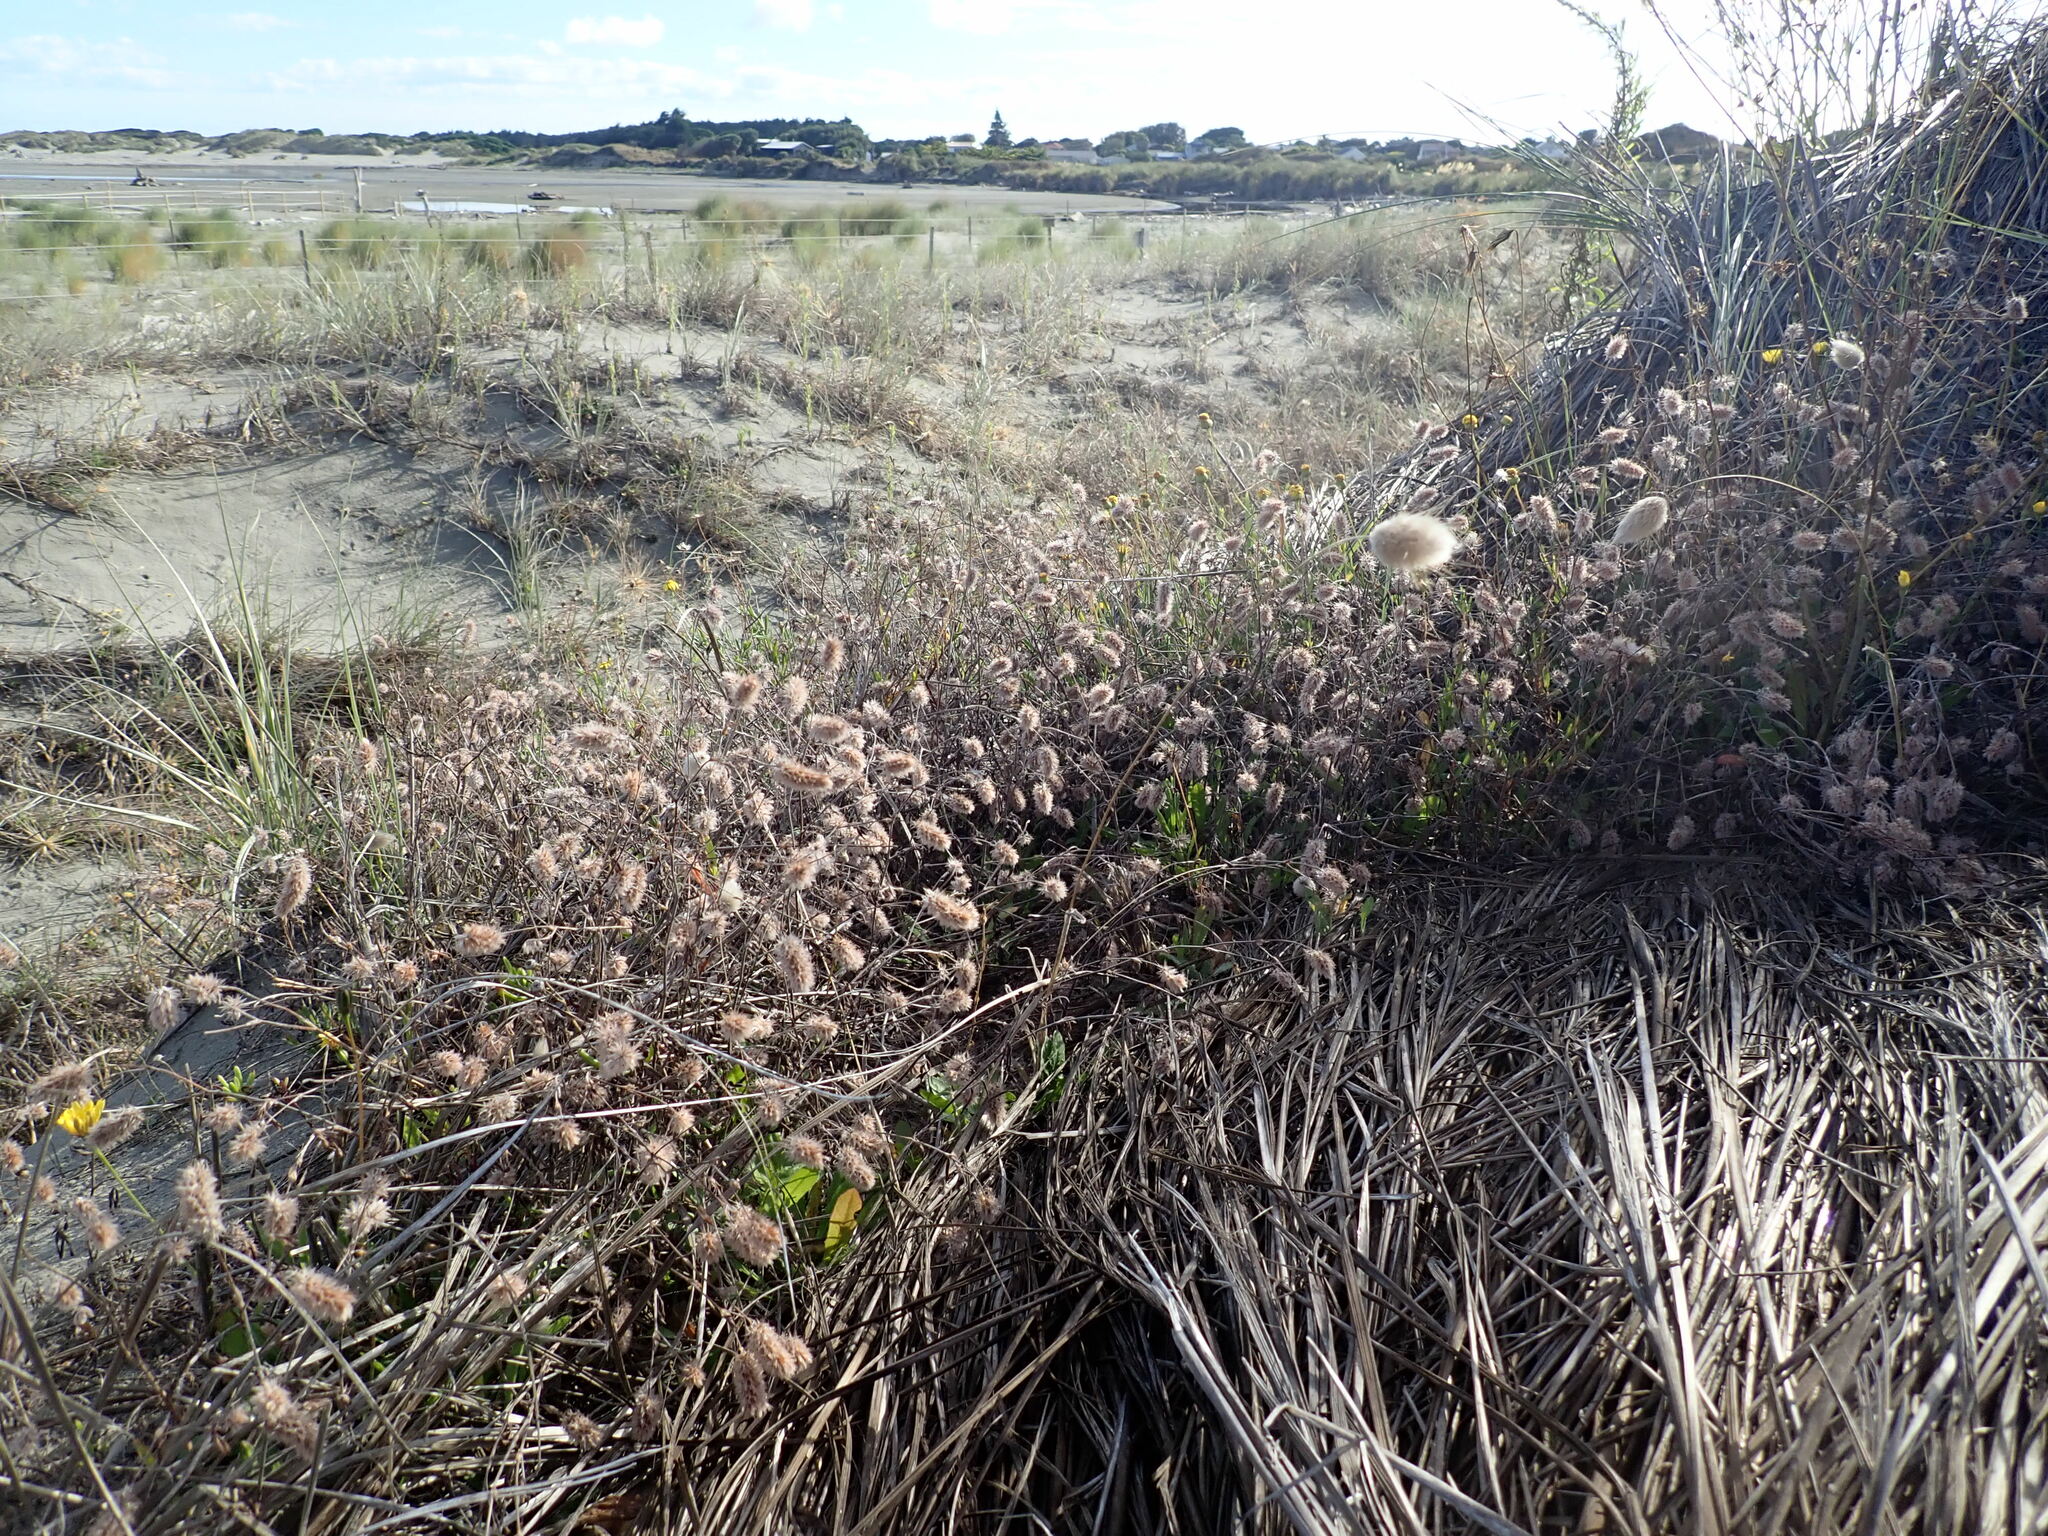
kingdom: Plantae
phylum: Tracheophyta
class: Magnoliopsida
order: Fabales
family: Fabaceae
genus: Trifolium
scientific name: Trifolium arvense
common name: Hare's-foot clover
